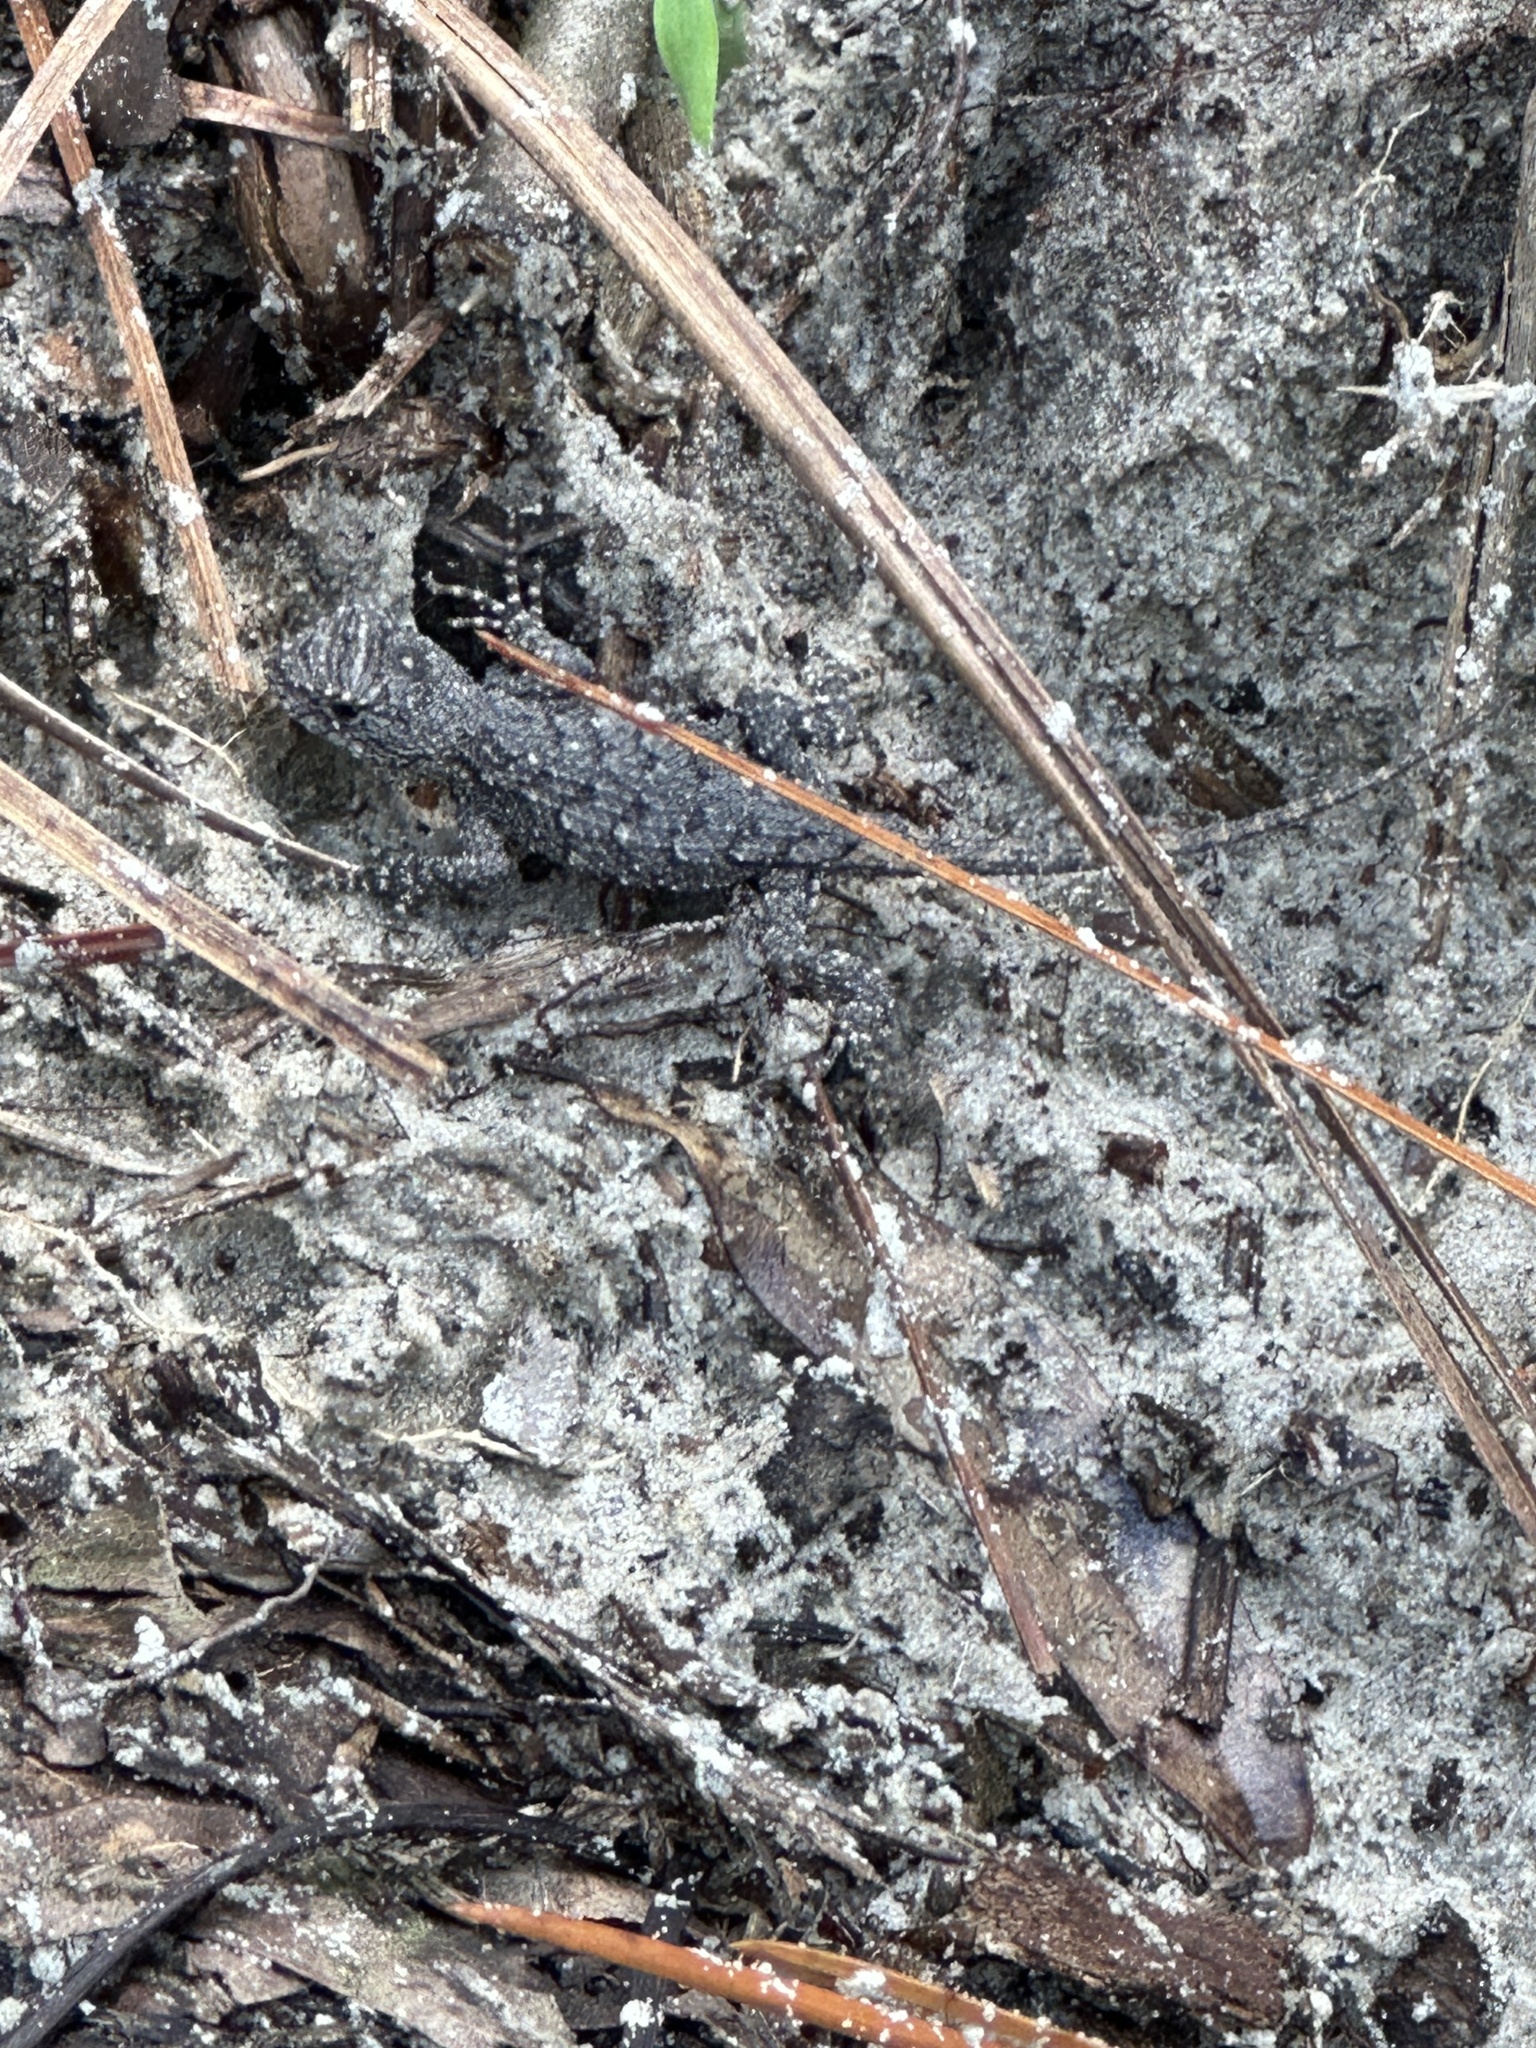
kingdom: Animalia
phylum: Chordata
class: Squamata
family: Phrynosomatidae
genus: Sceloporus
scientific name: Sceloporus undulatus
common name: Eastern fence lizard
